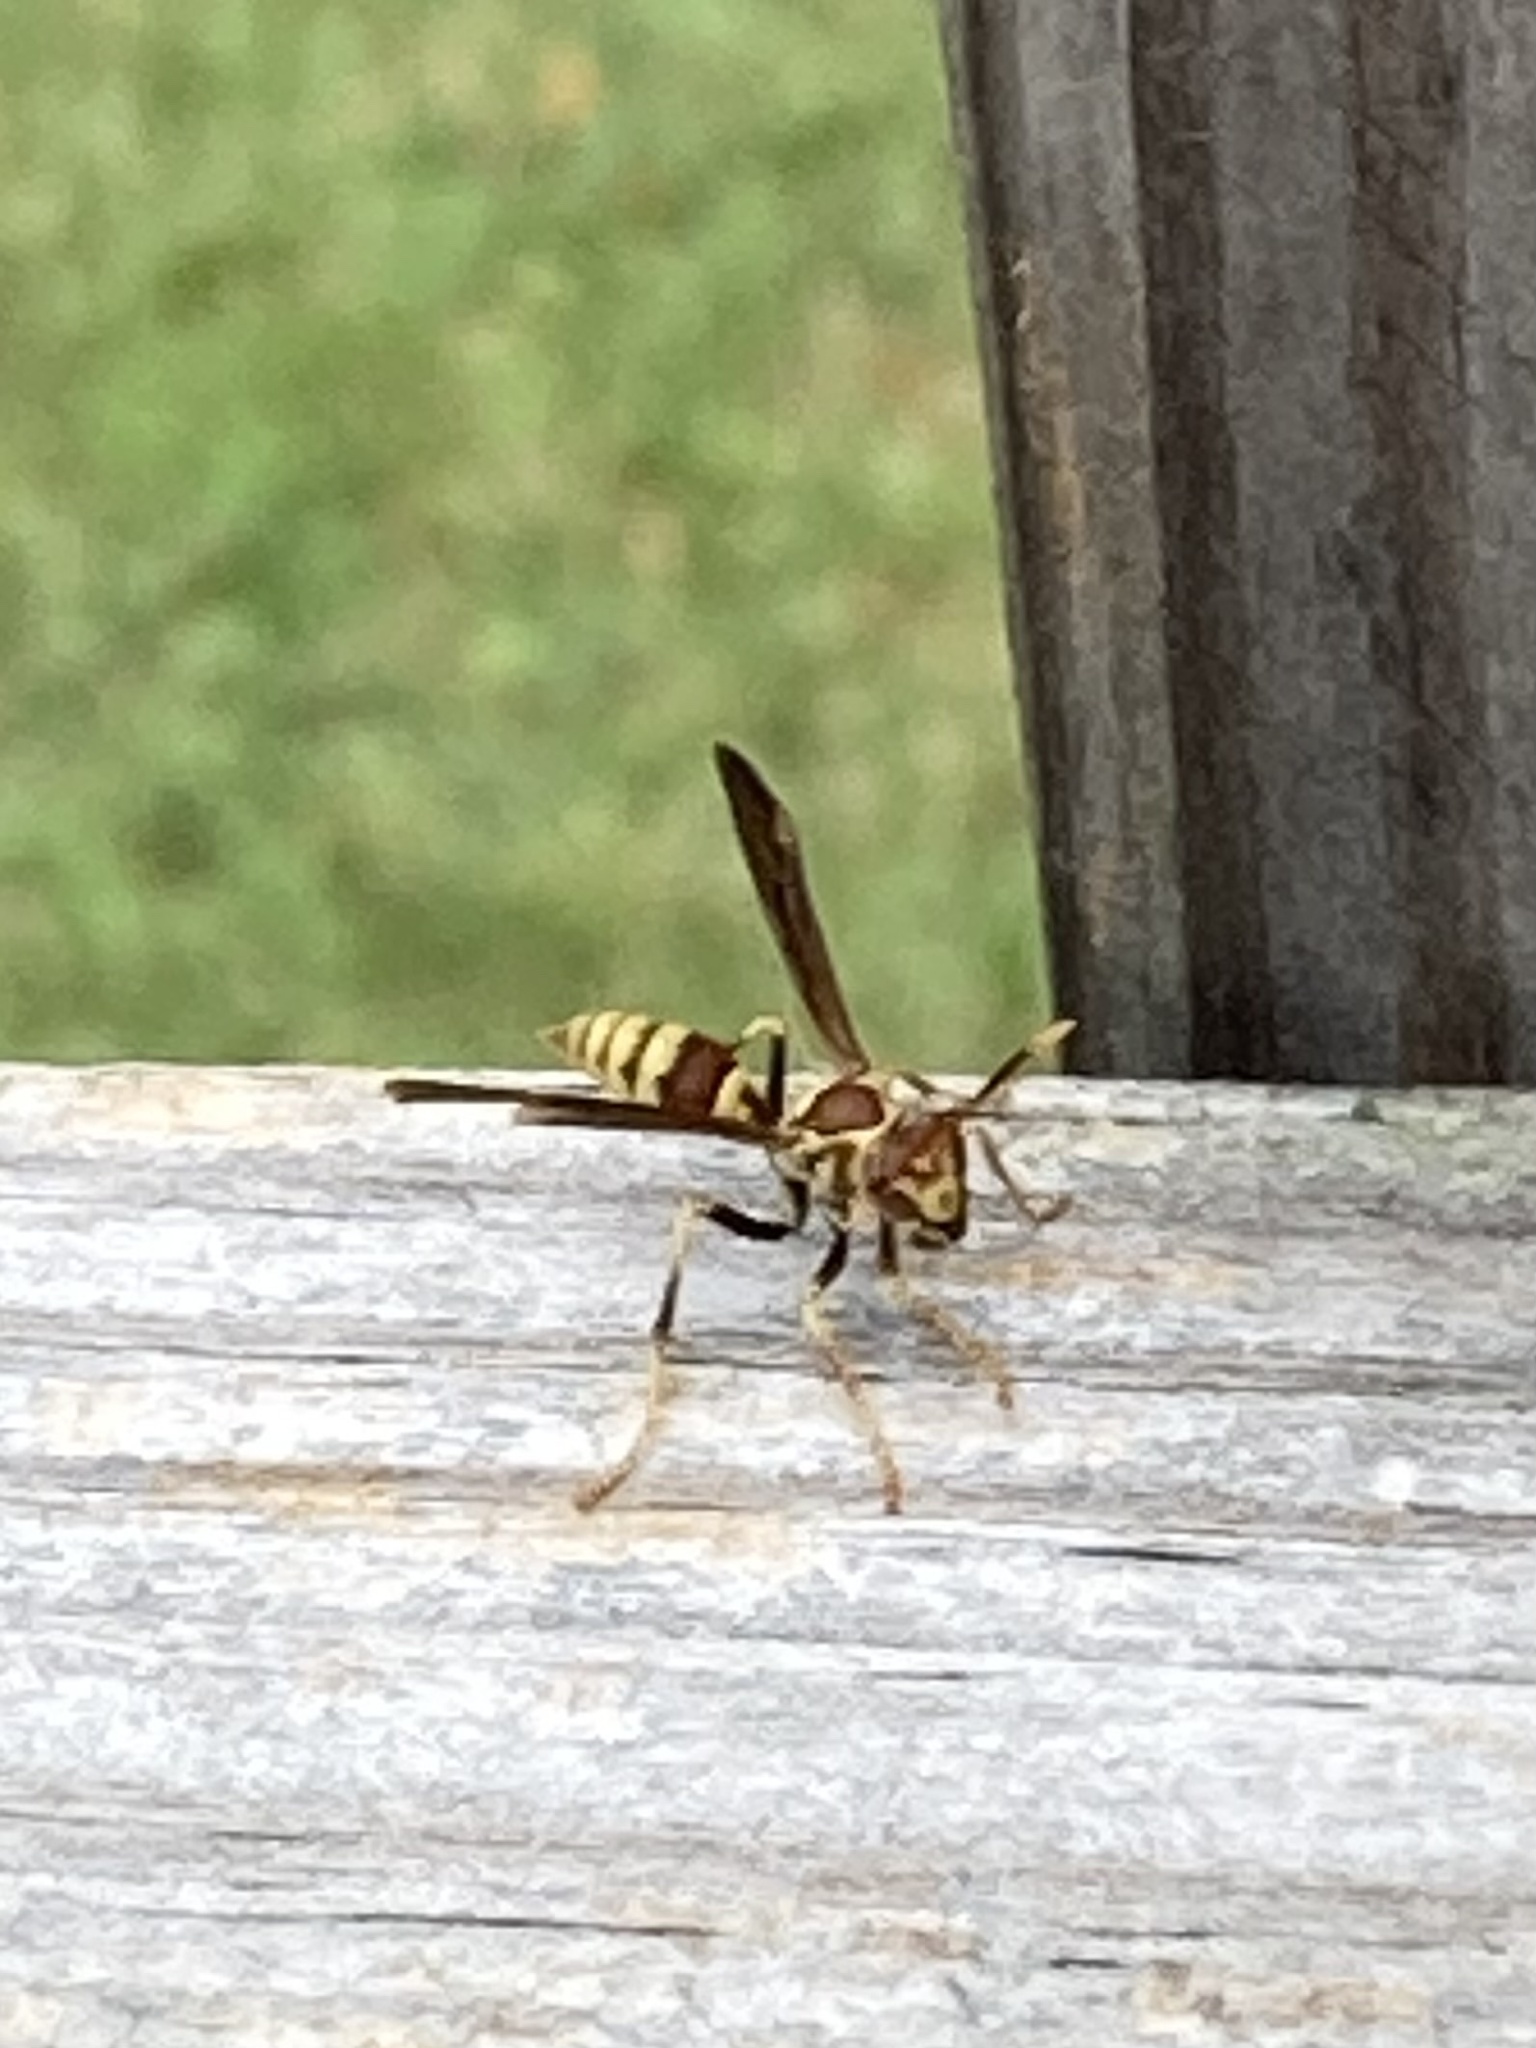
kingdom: Animalia
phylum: Arthropoda
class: Insecta
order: Hymenoptera
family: Eumenidae
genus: Polistes
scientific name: Polistes exclamans
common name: Paper wasp
